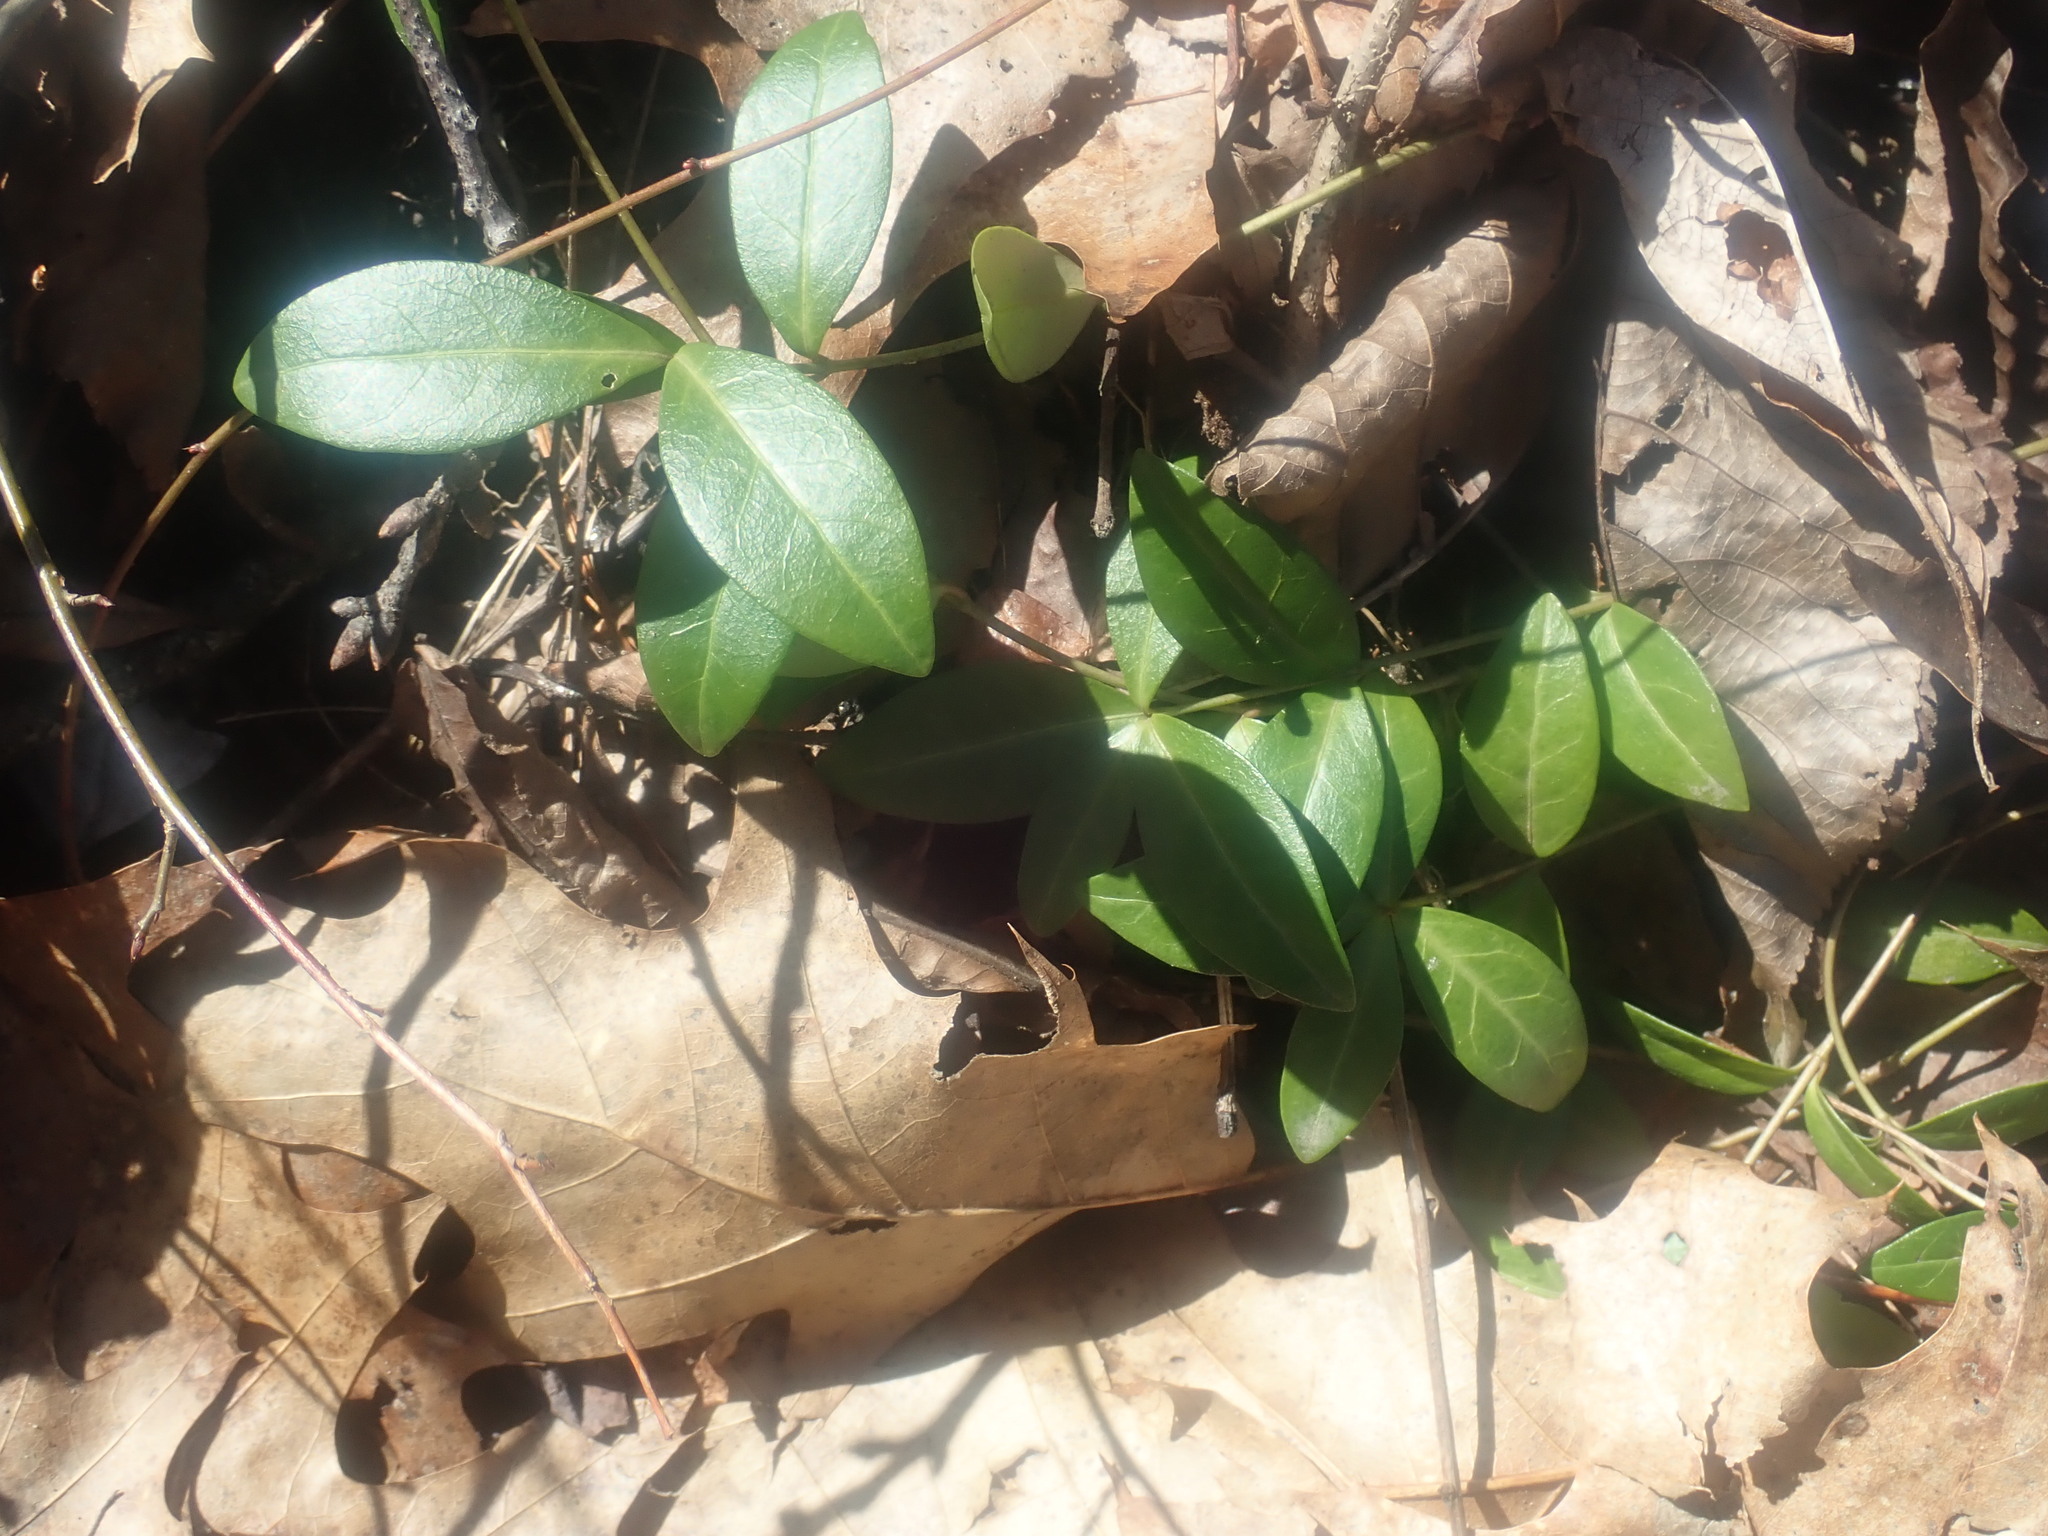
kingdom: Plantae
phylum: Tracheophyta
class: Magnoliopsida
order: Gentianales
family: Apocynaceae
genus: Vinca
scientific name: Vinca minor
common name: Lesser periwinkle
